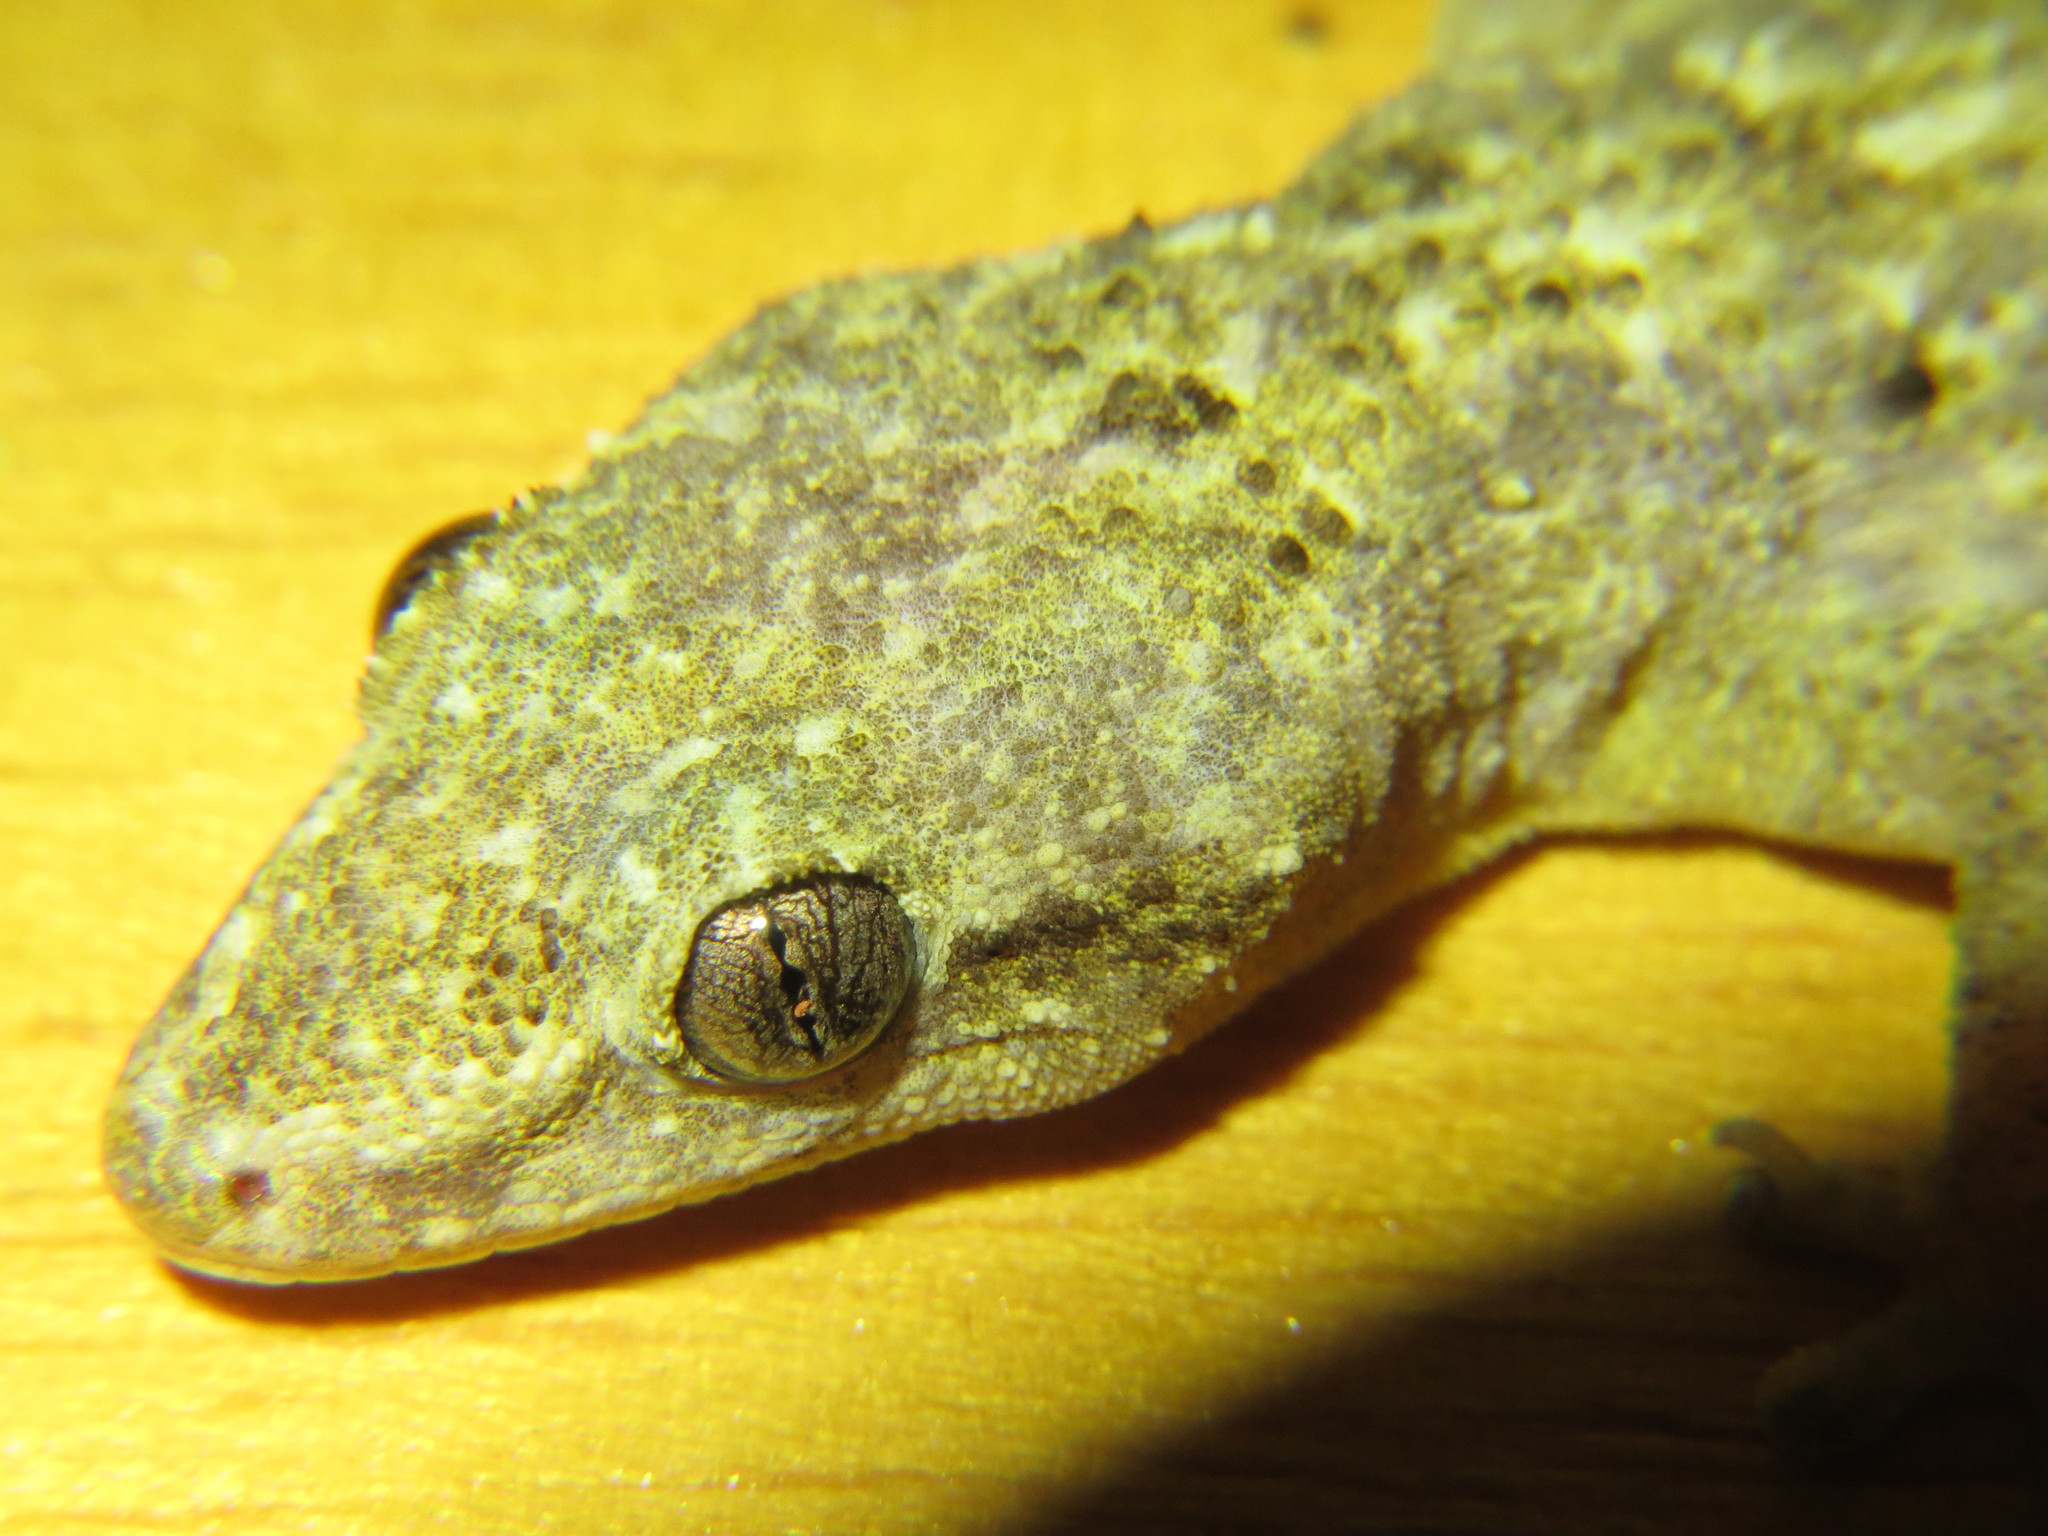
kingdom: Animalia
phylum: Chordata
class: Squamata
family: Gekkonidae
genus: Hemidactylus
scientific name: Hemidactylus palaichthus
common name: Antilles leaf-toed gecko
